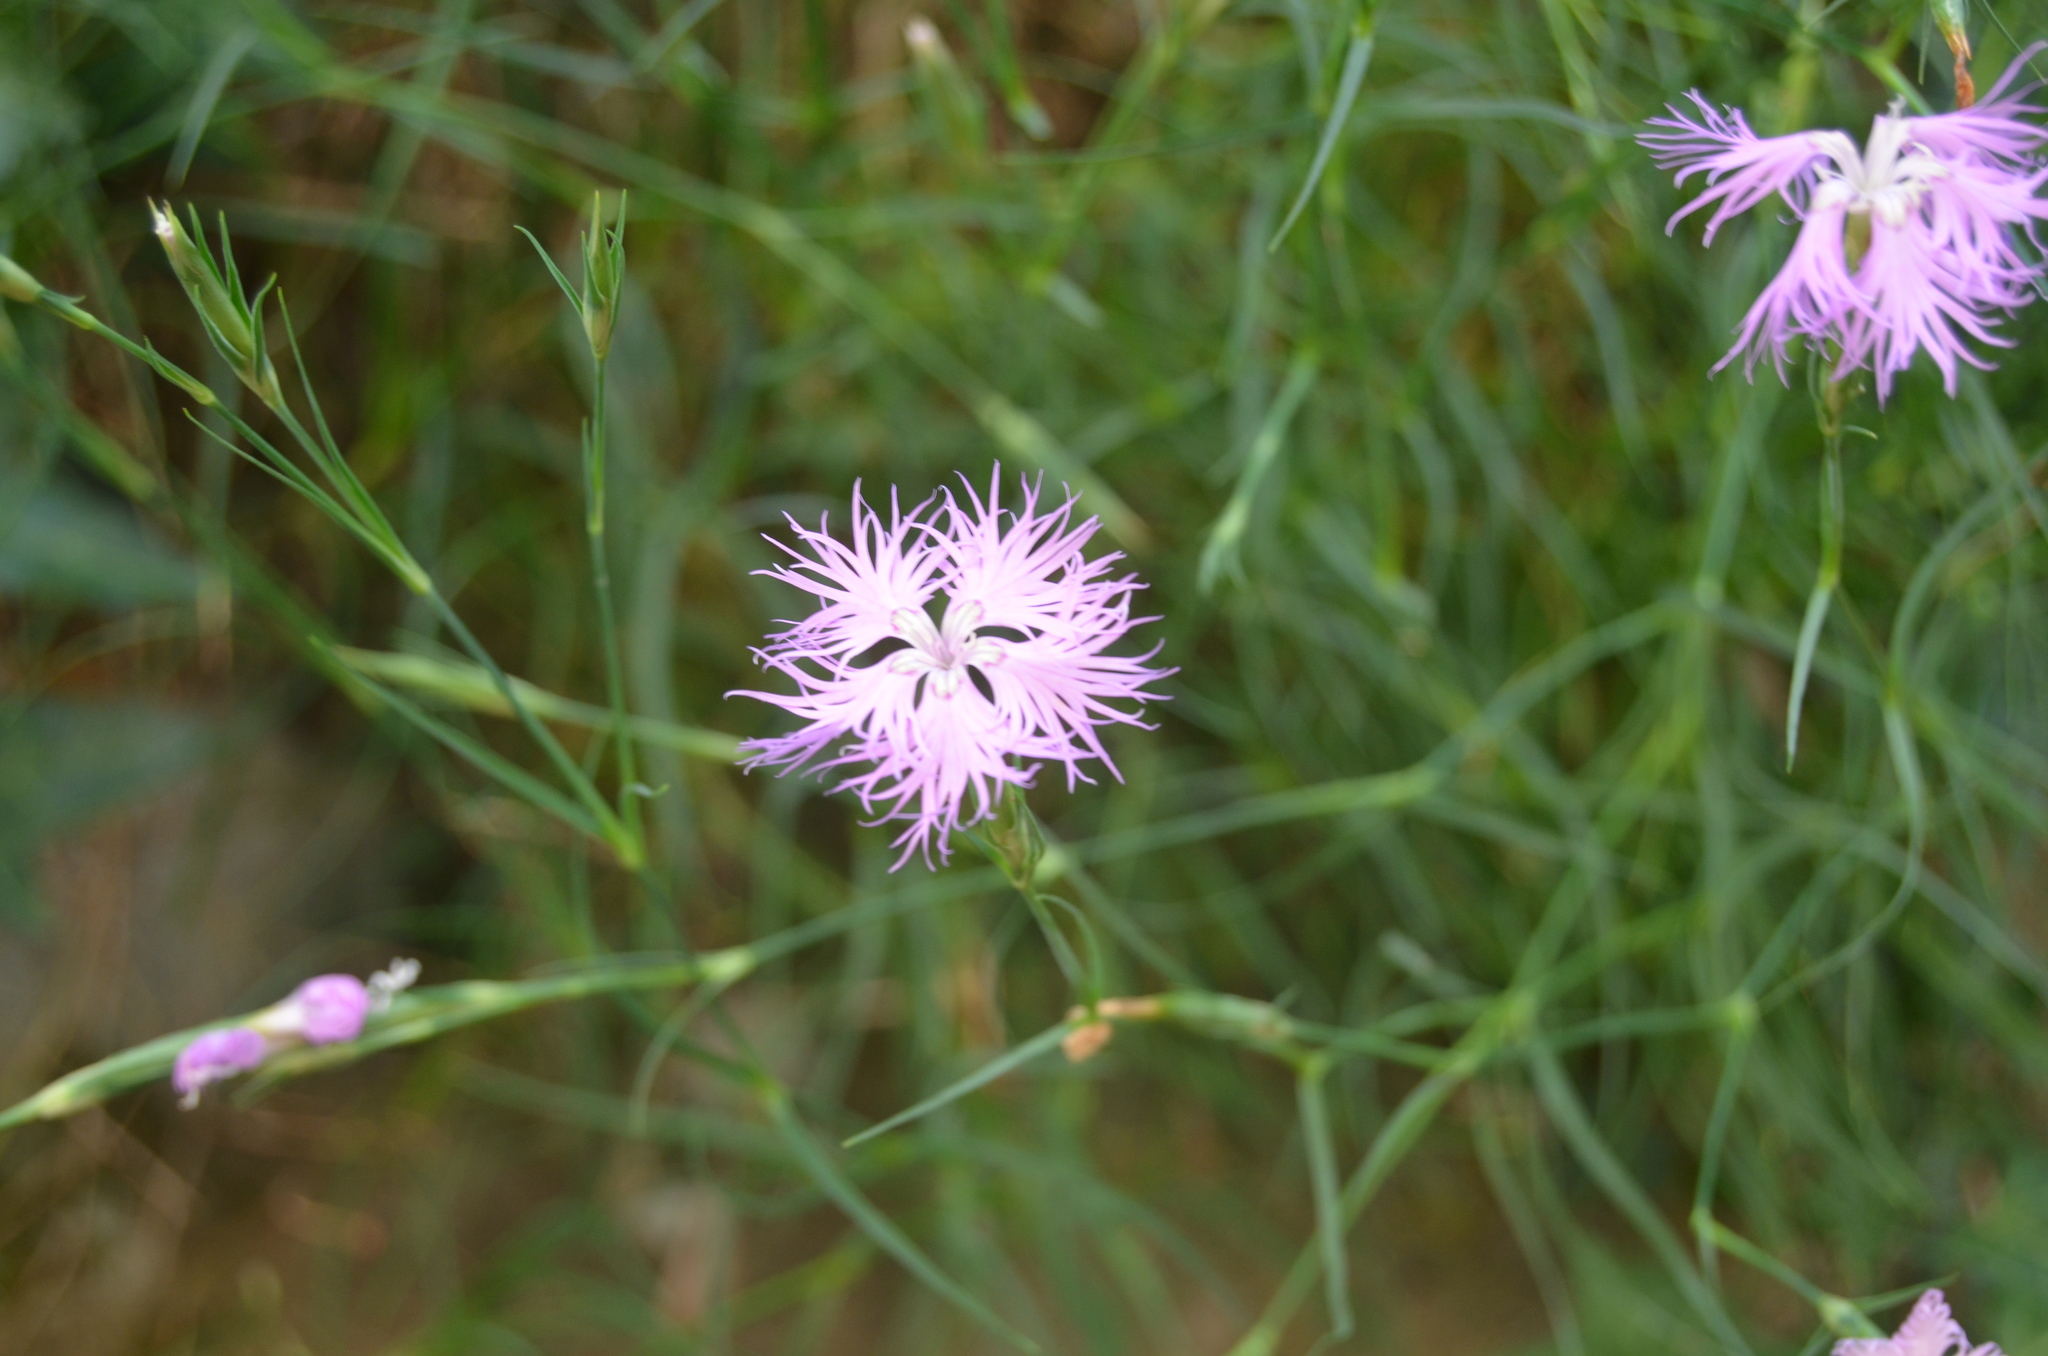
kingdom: Plantae
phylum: Tracheophyta
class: Magnoliopsida
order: Caryophyllales
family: Caryophyllaceae
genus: Dianthus
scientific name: Dianthus hyssopifolius
